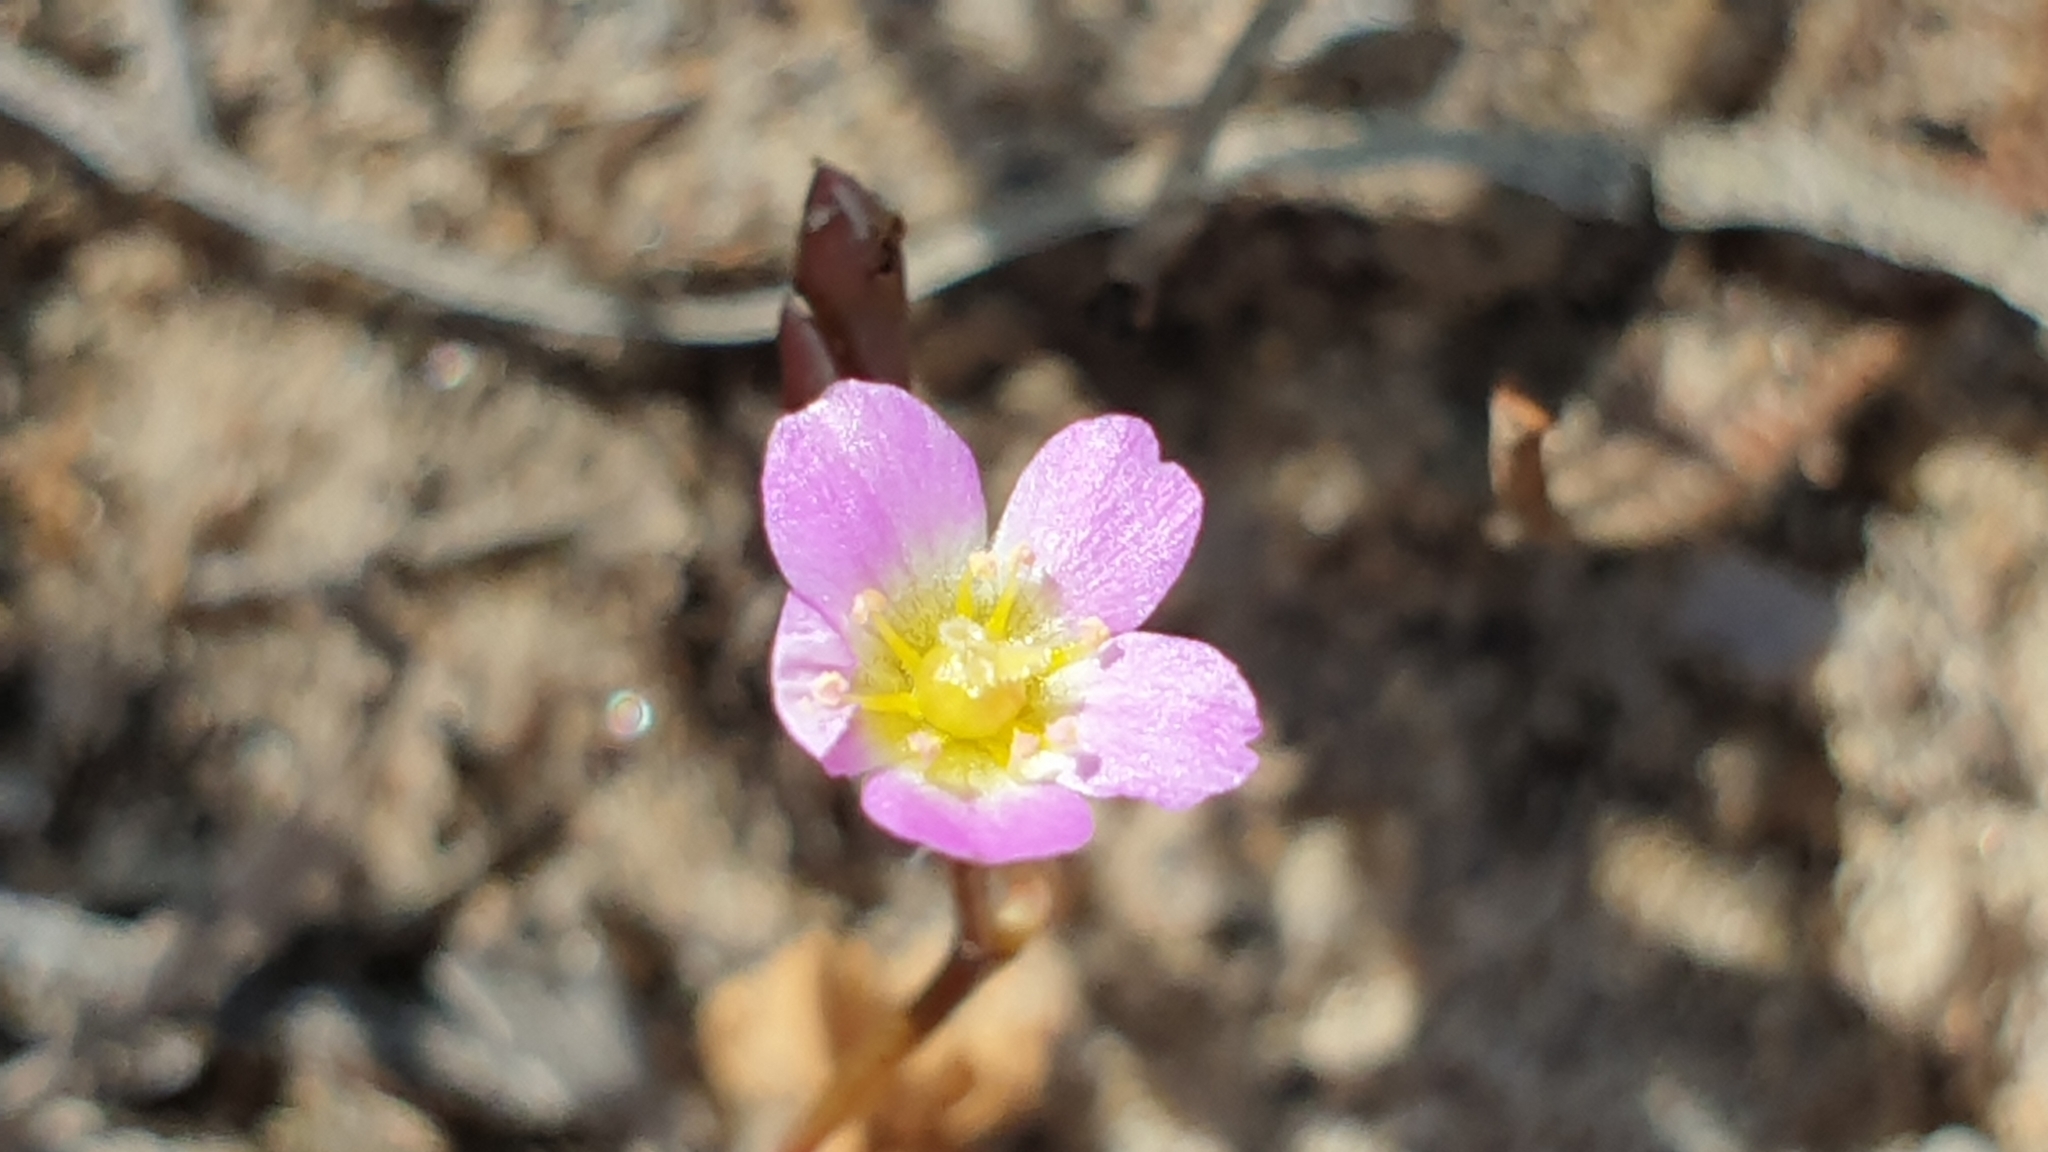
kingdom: Plantae
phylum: Tracheophyta
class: Magnoliopsida
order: Caryophyllales
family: Montiaceae
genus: Rumicastrum
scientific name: Rumicastrum eremaeum
